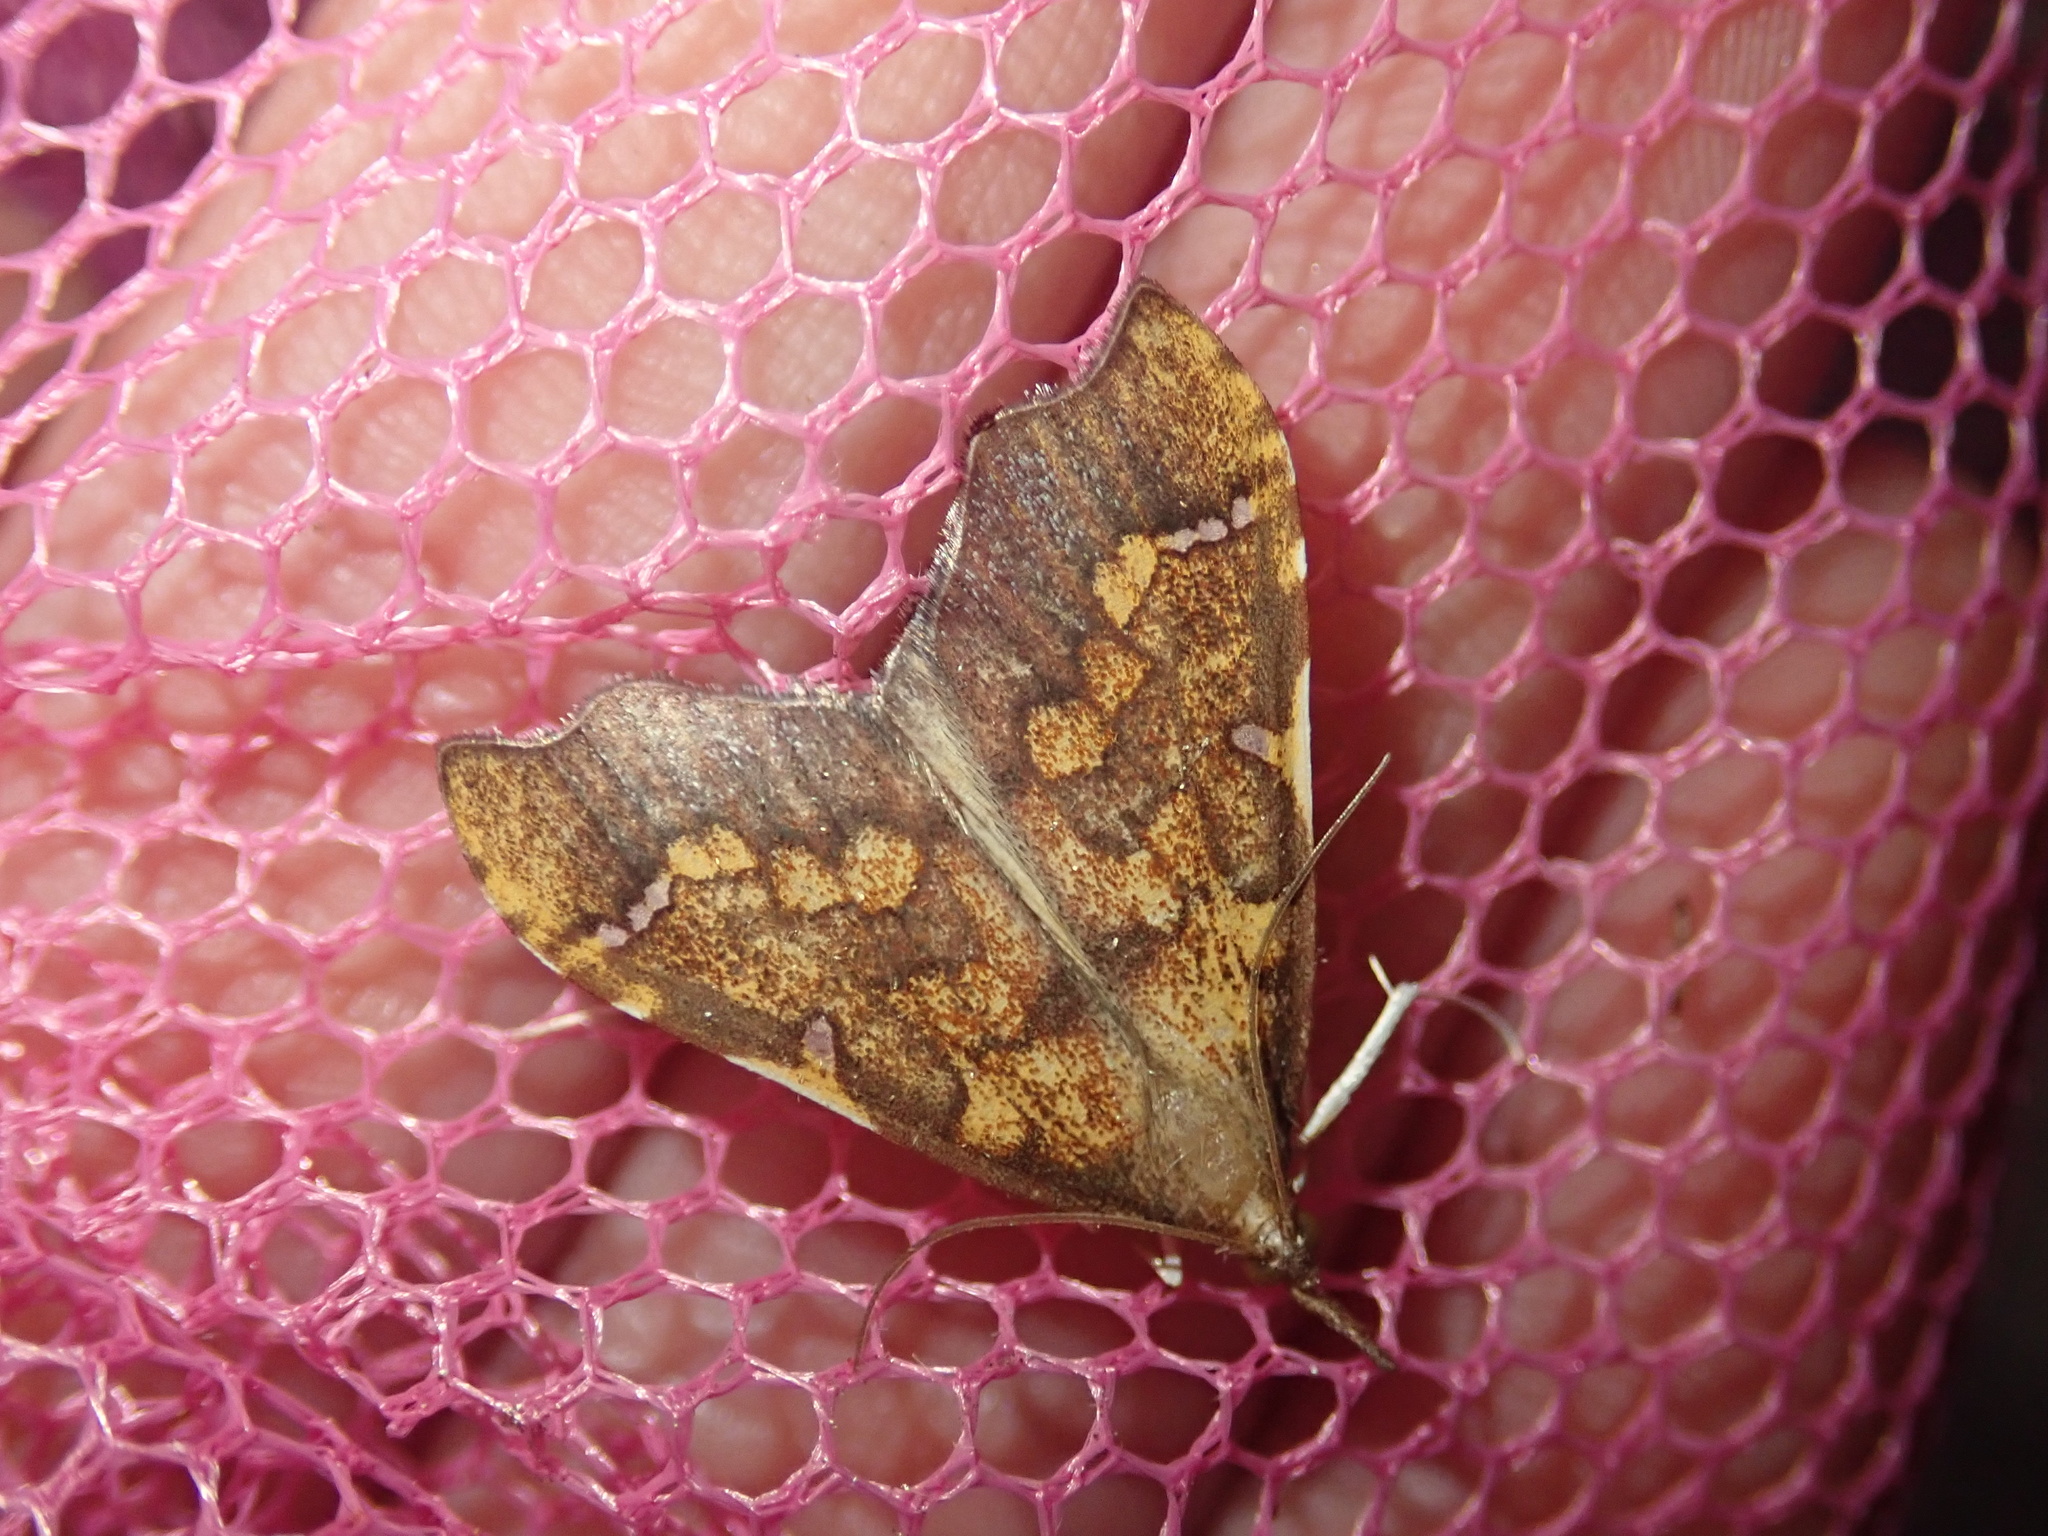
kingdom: Animalia
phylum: Arthropoda
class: Insecta
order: Lepidoptera
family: Crambidae
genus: Deana
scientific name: Deana hybreasalis
